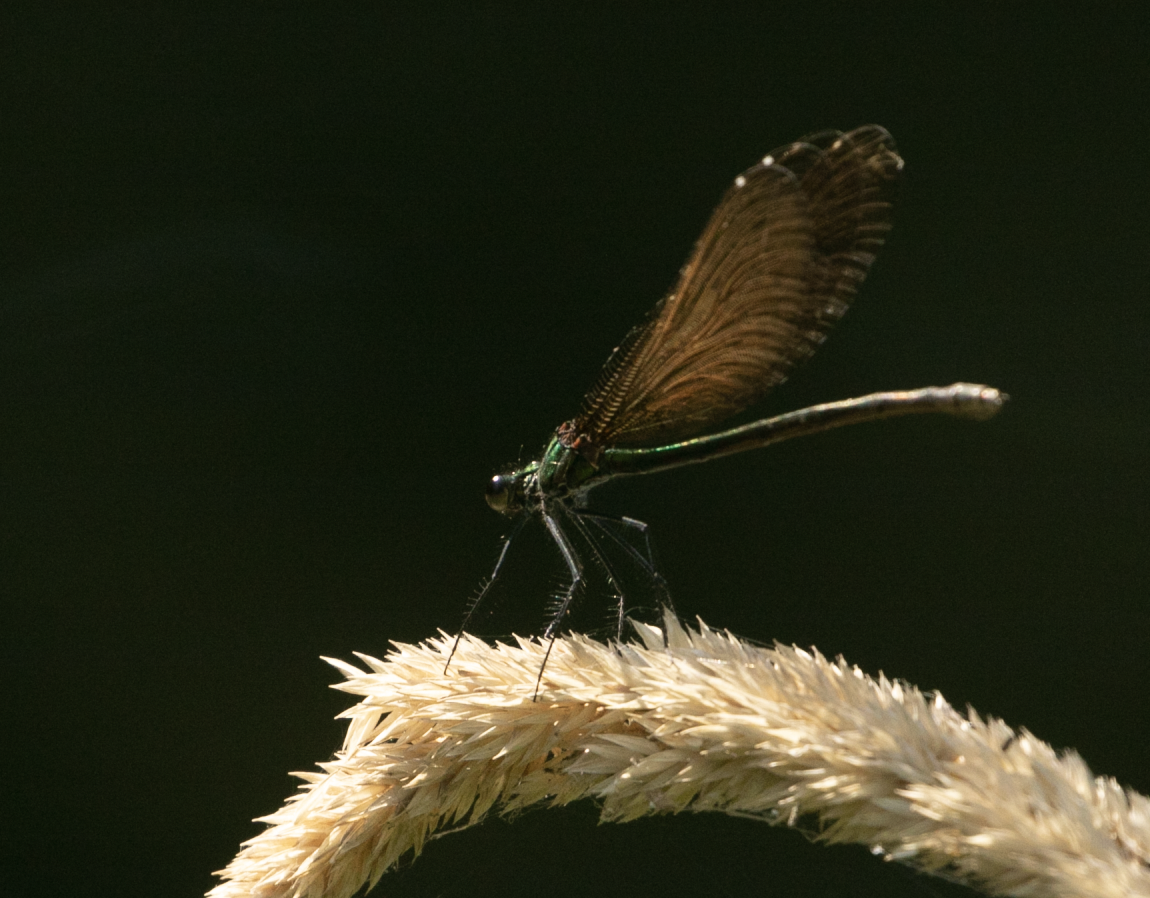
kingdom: Animalia
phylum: Arthropoda
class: Insecta
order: Odonata
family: Calopterygidae
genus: Calopteryx
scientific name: Calopteryx virgo
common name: Beautiful demoiselle
